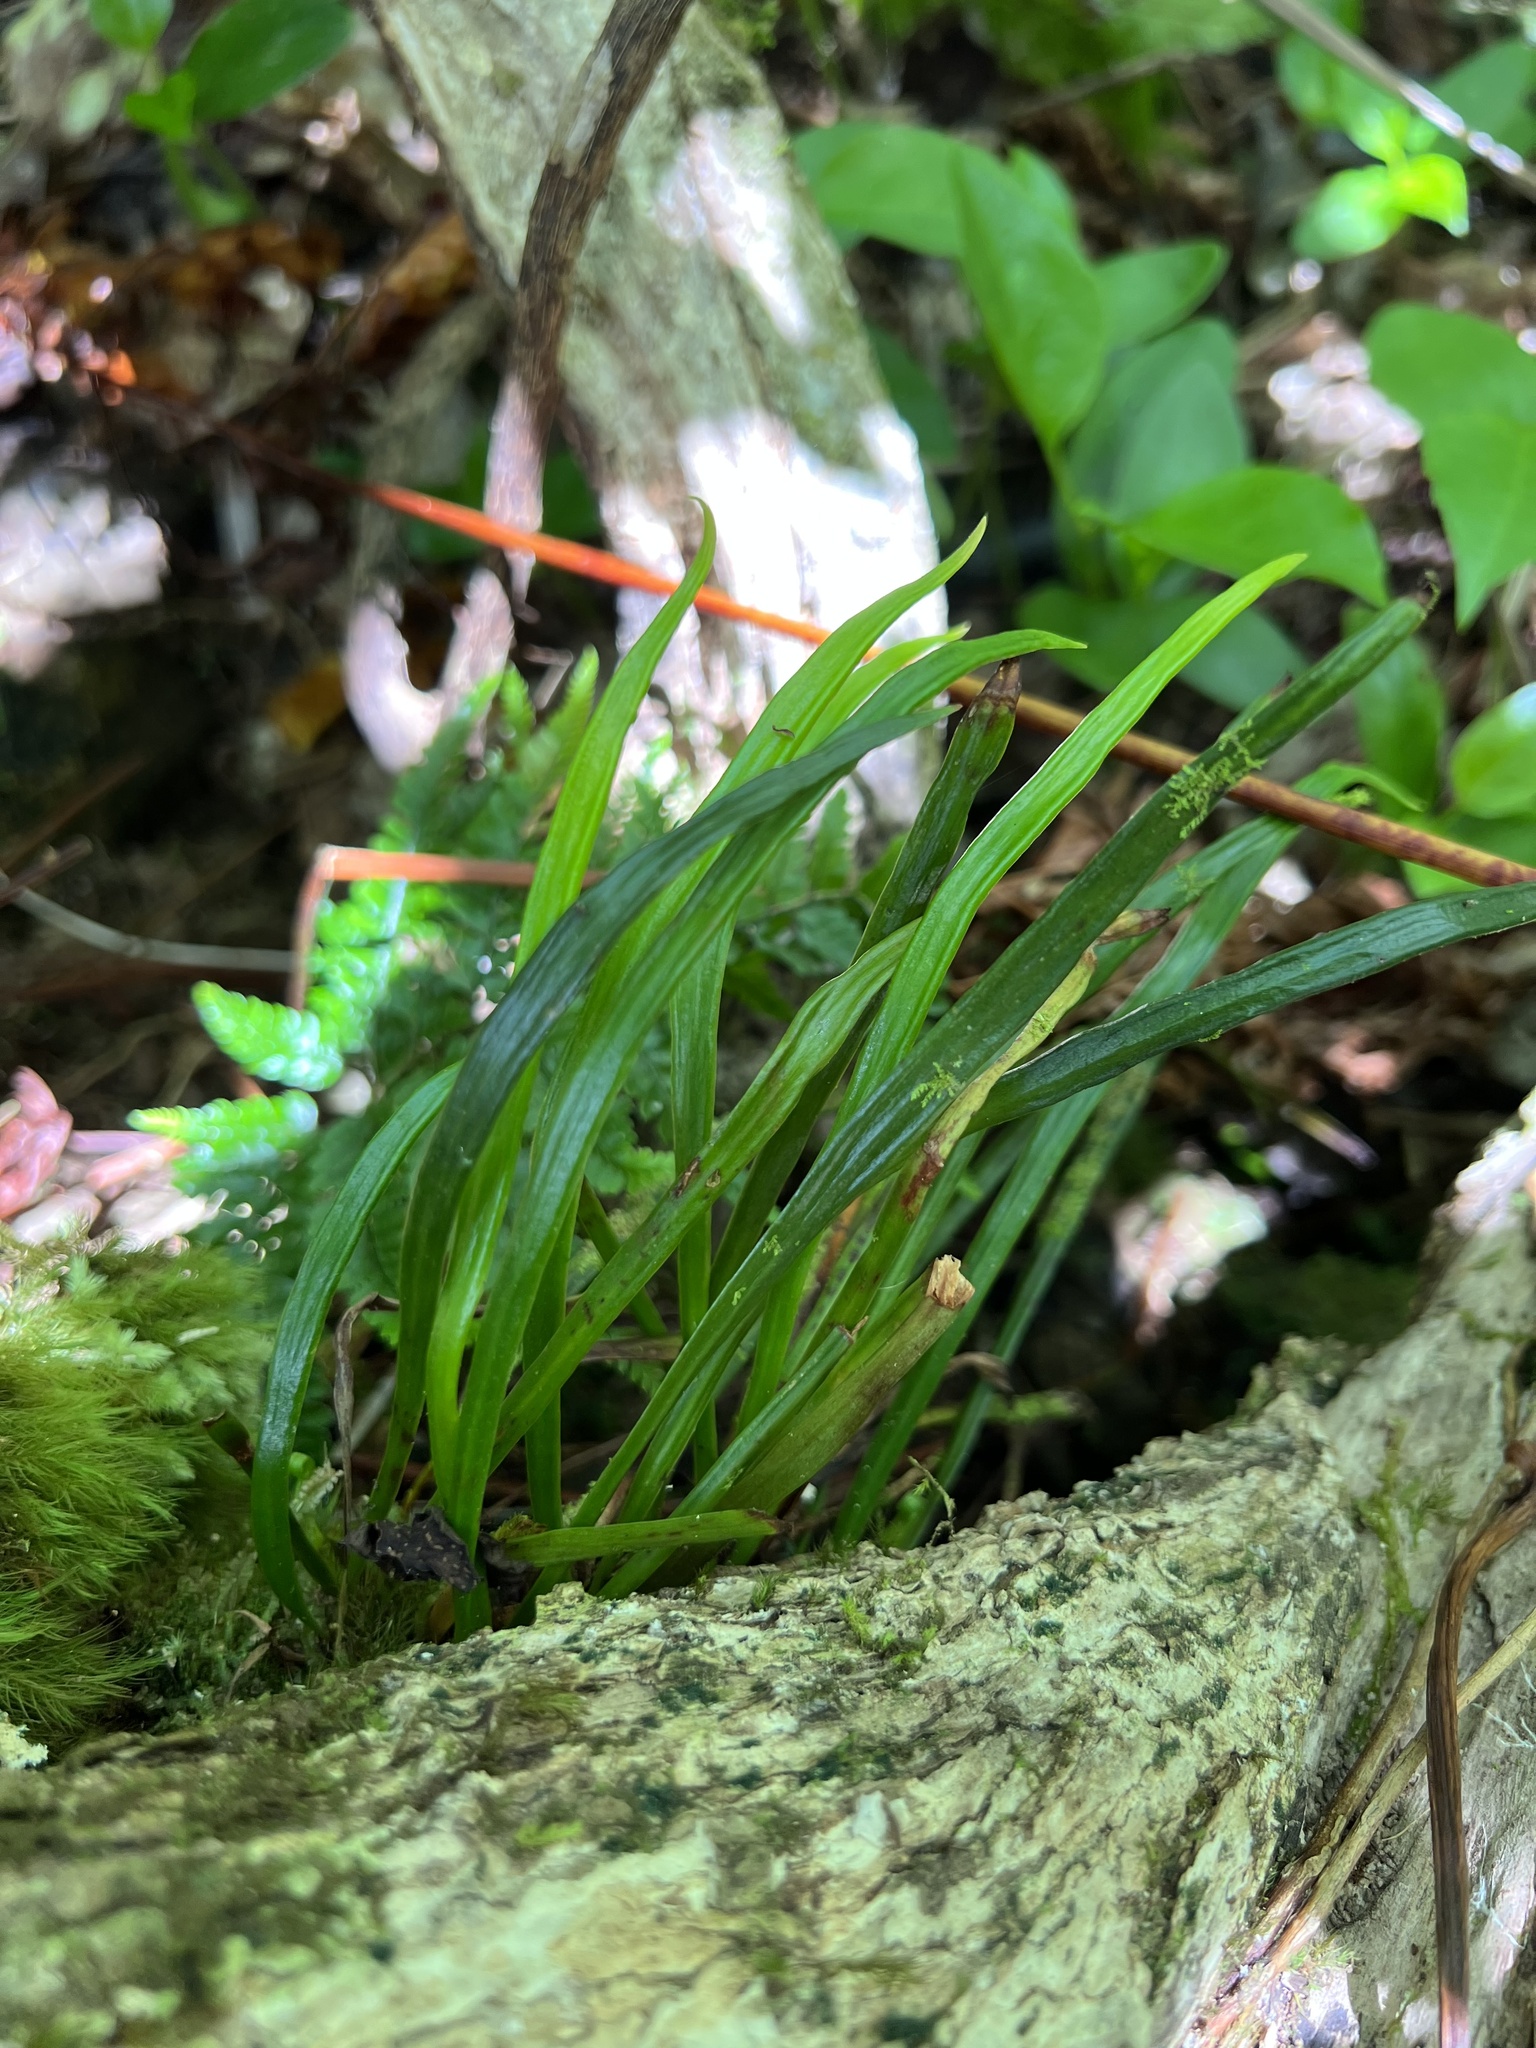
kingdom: Plantae
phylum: Tracheophyta
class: Polypodiopsida
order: Polypodiales
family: Pteridaceae
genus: Haplopteris
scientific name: Haplopteris elongata
